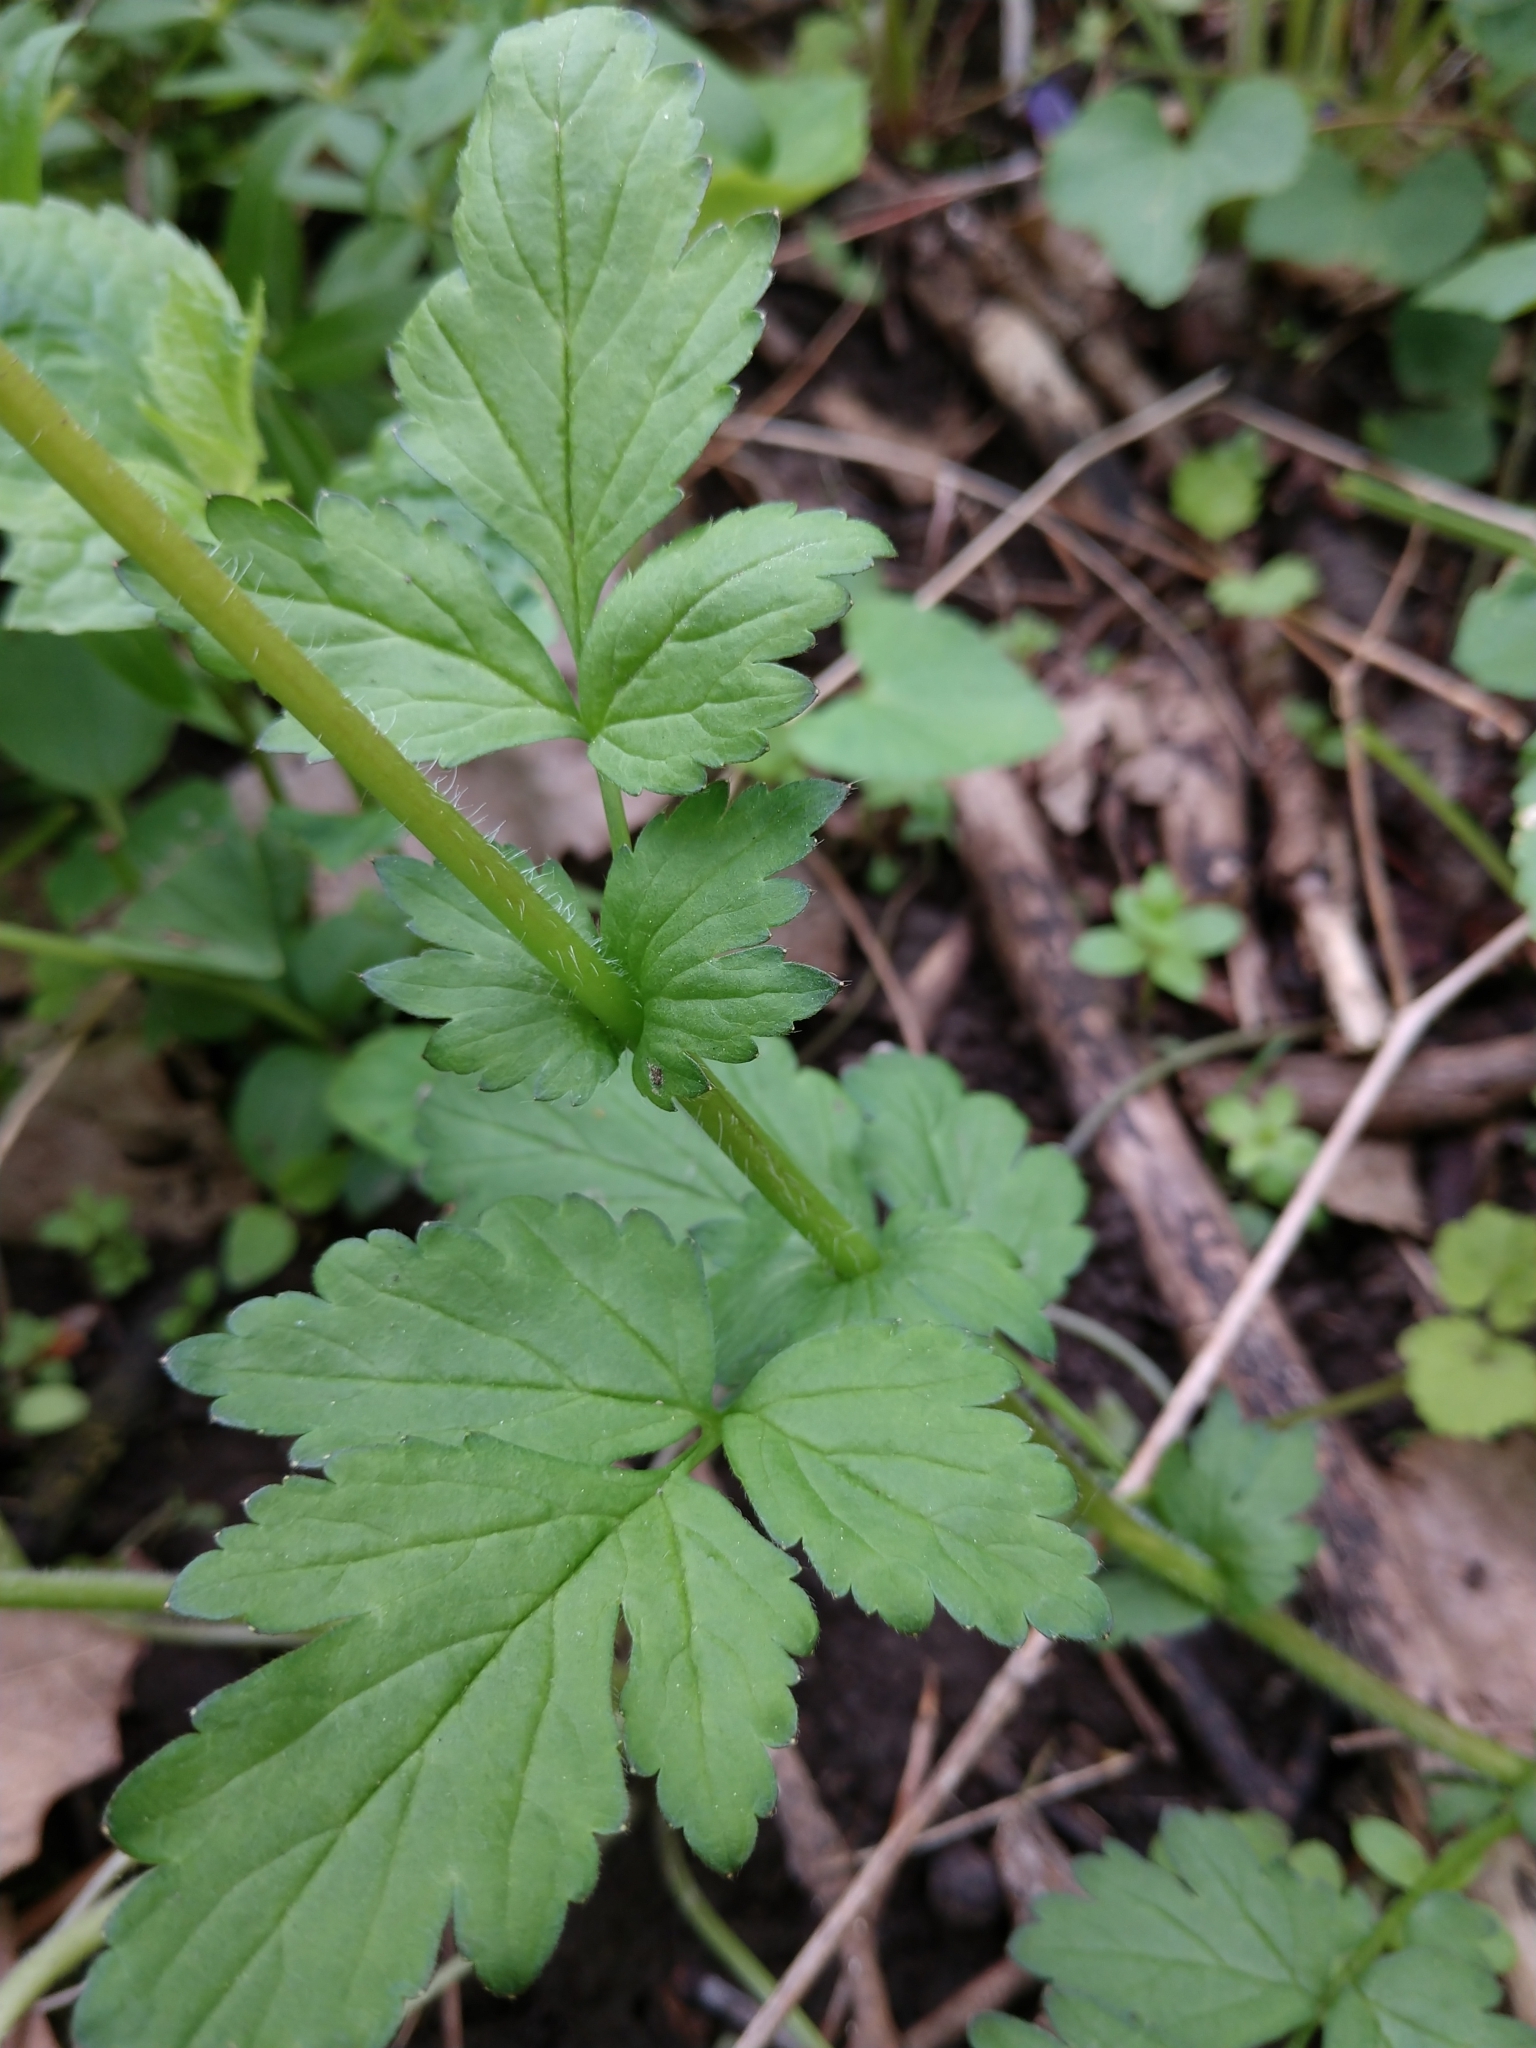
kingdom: Plantae
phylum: Tracheophyta
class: Magnoliopsida
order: Rosales
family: Rosaceae
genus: Geum
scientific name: Geum vernum
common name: Spring avens
